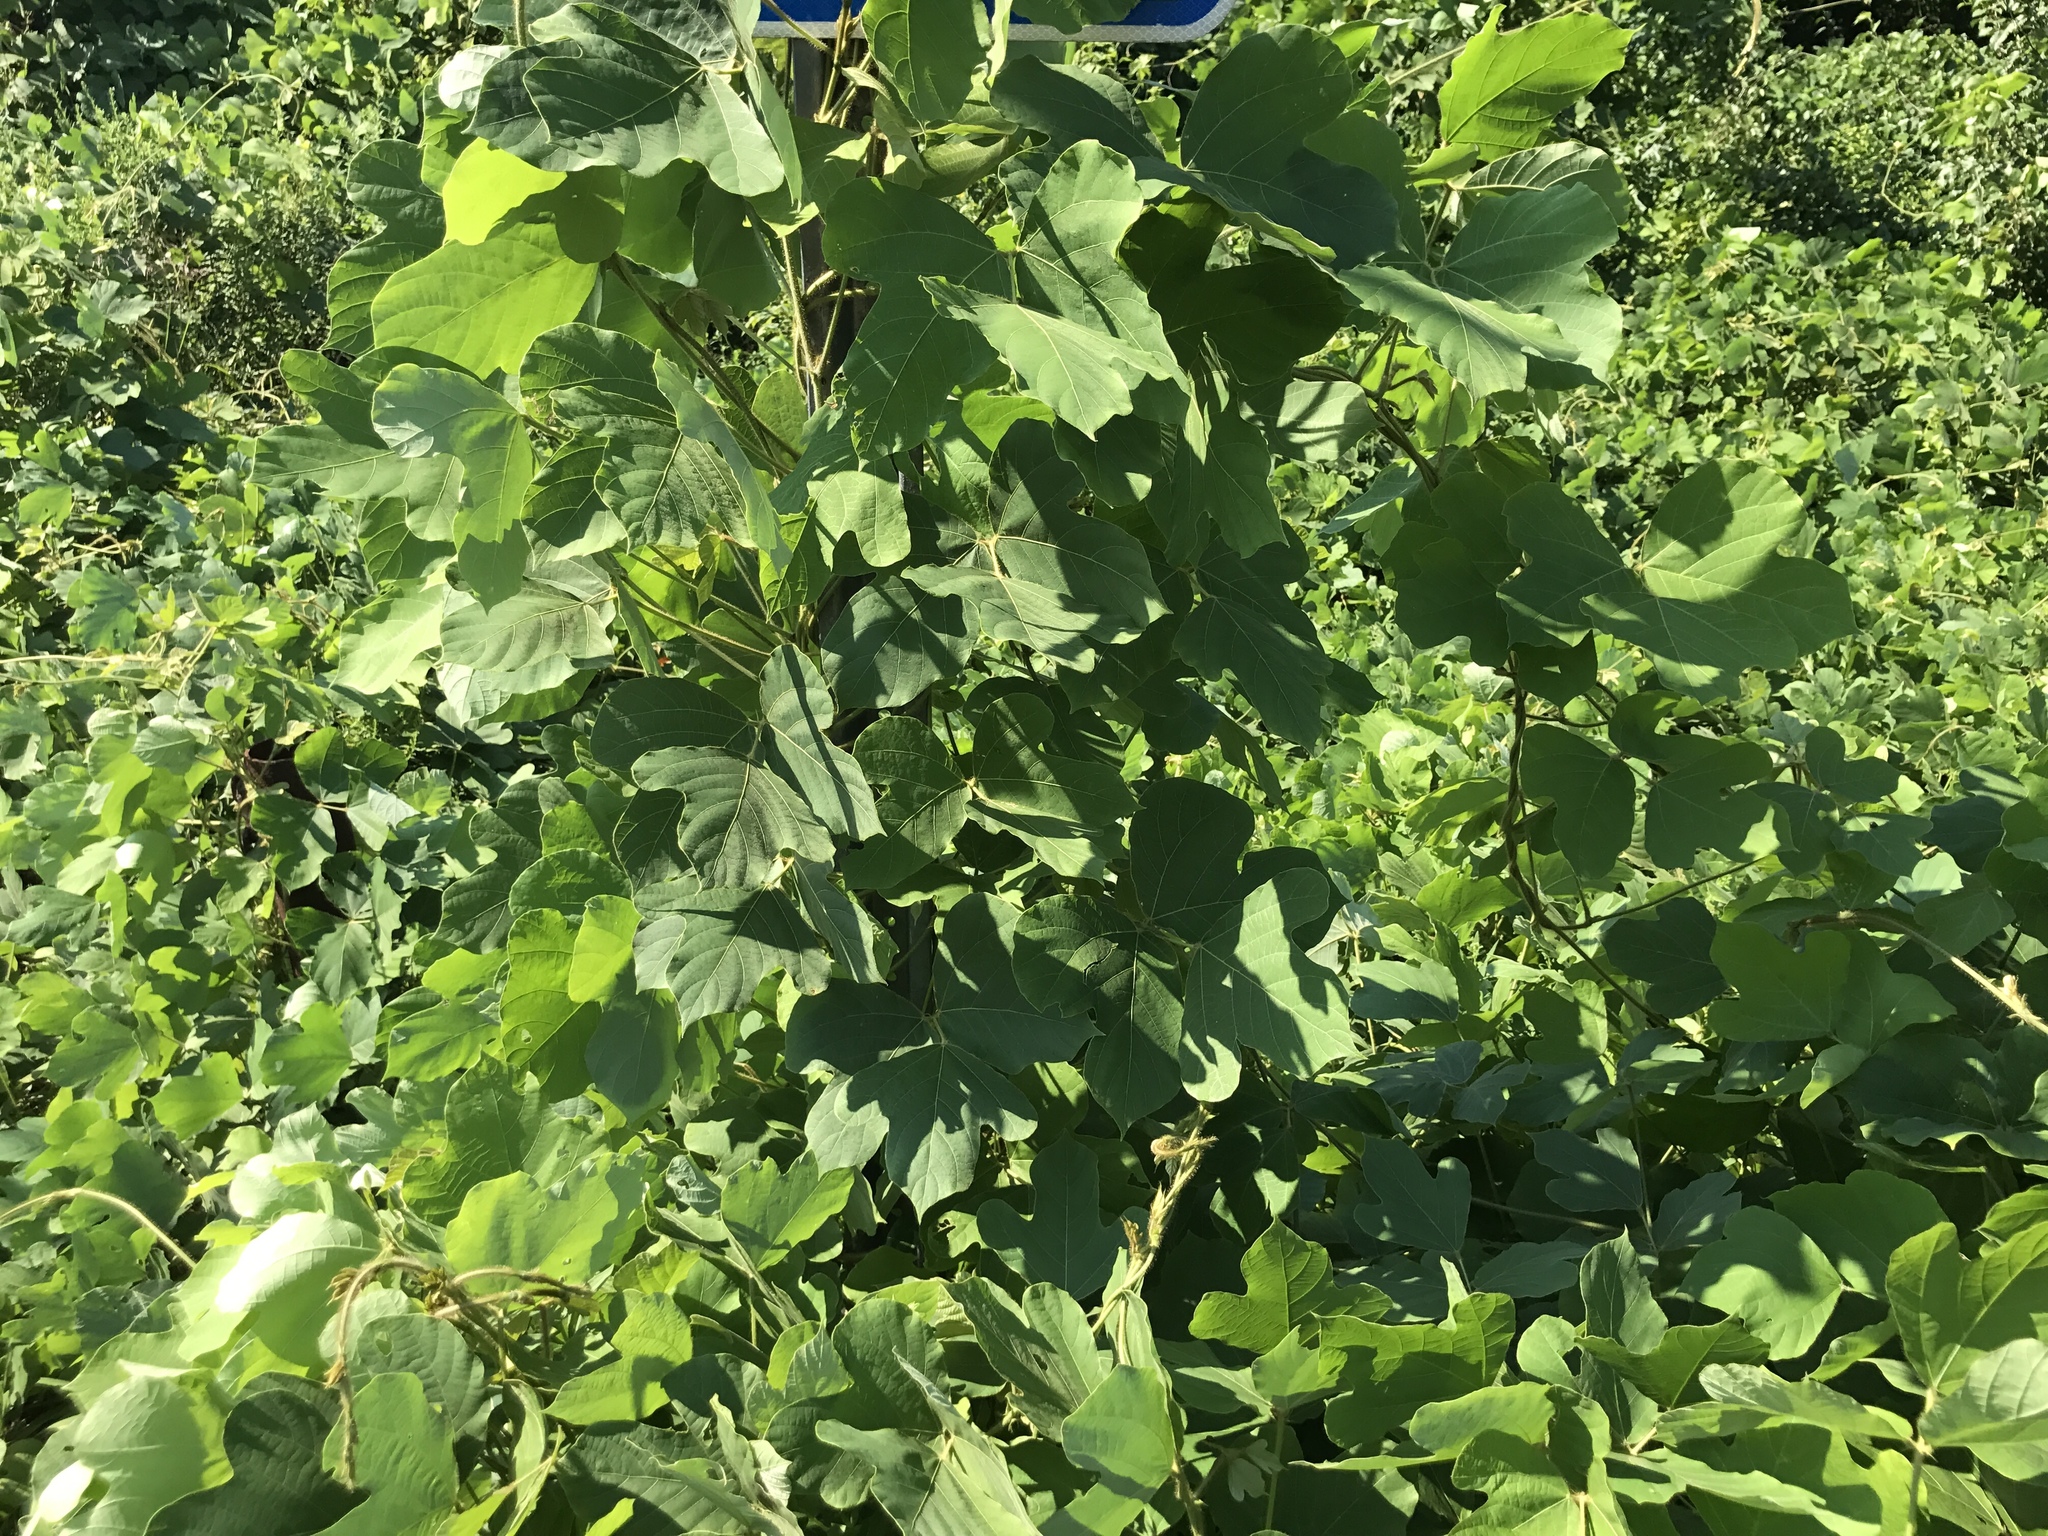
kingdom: Plantae
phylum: Tracheophyta
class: Magnoliopsida
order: Fabales
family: Fabaceae
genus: Pueraria
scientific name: Pueraria montana
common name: Kudzu
